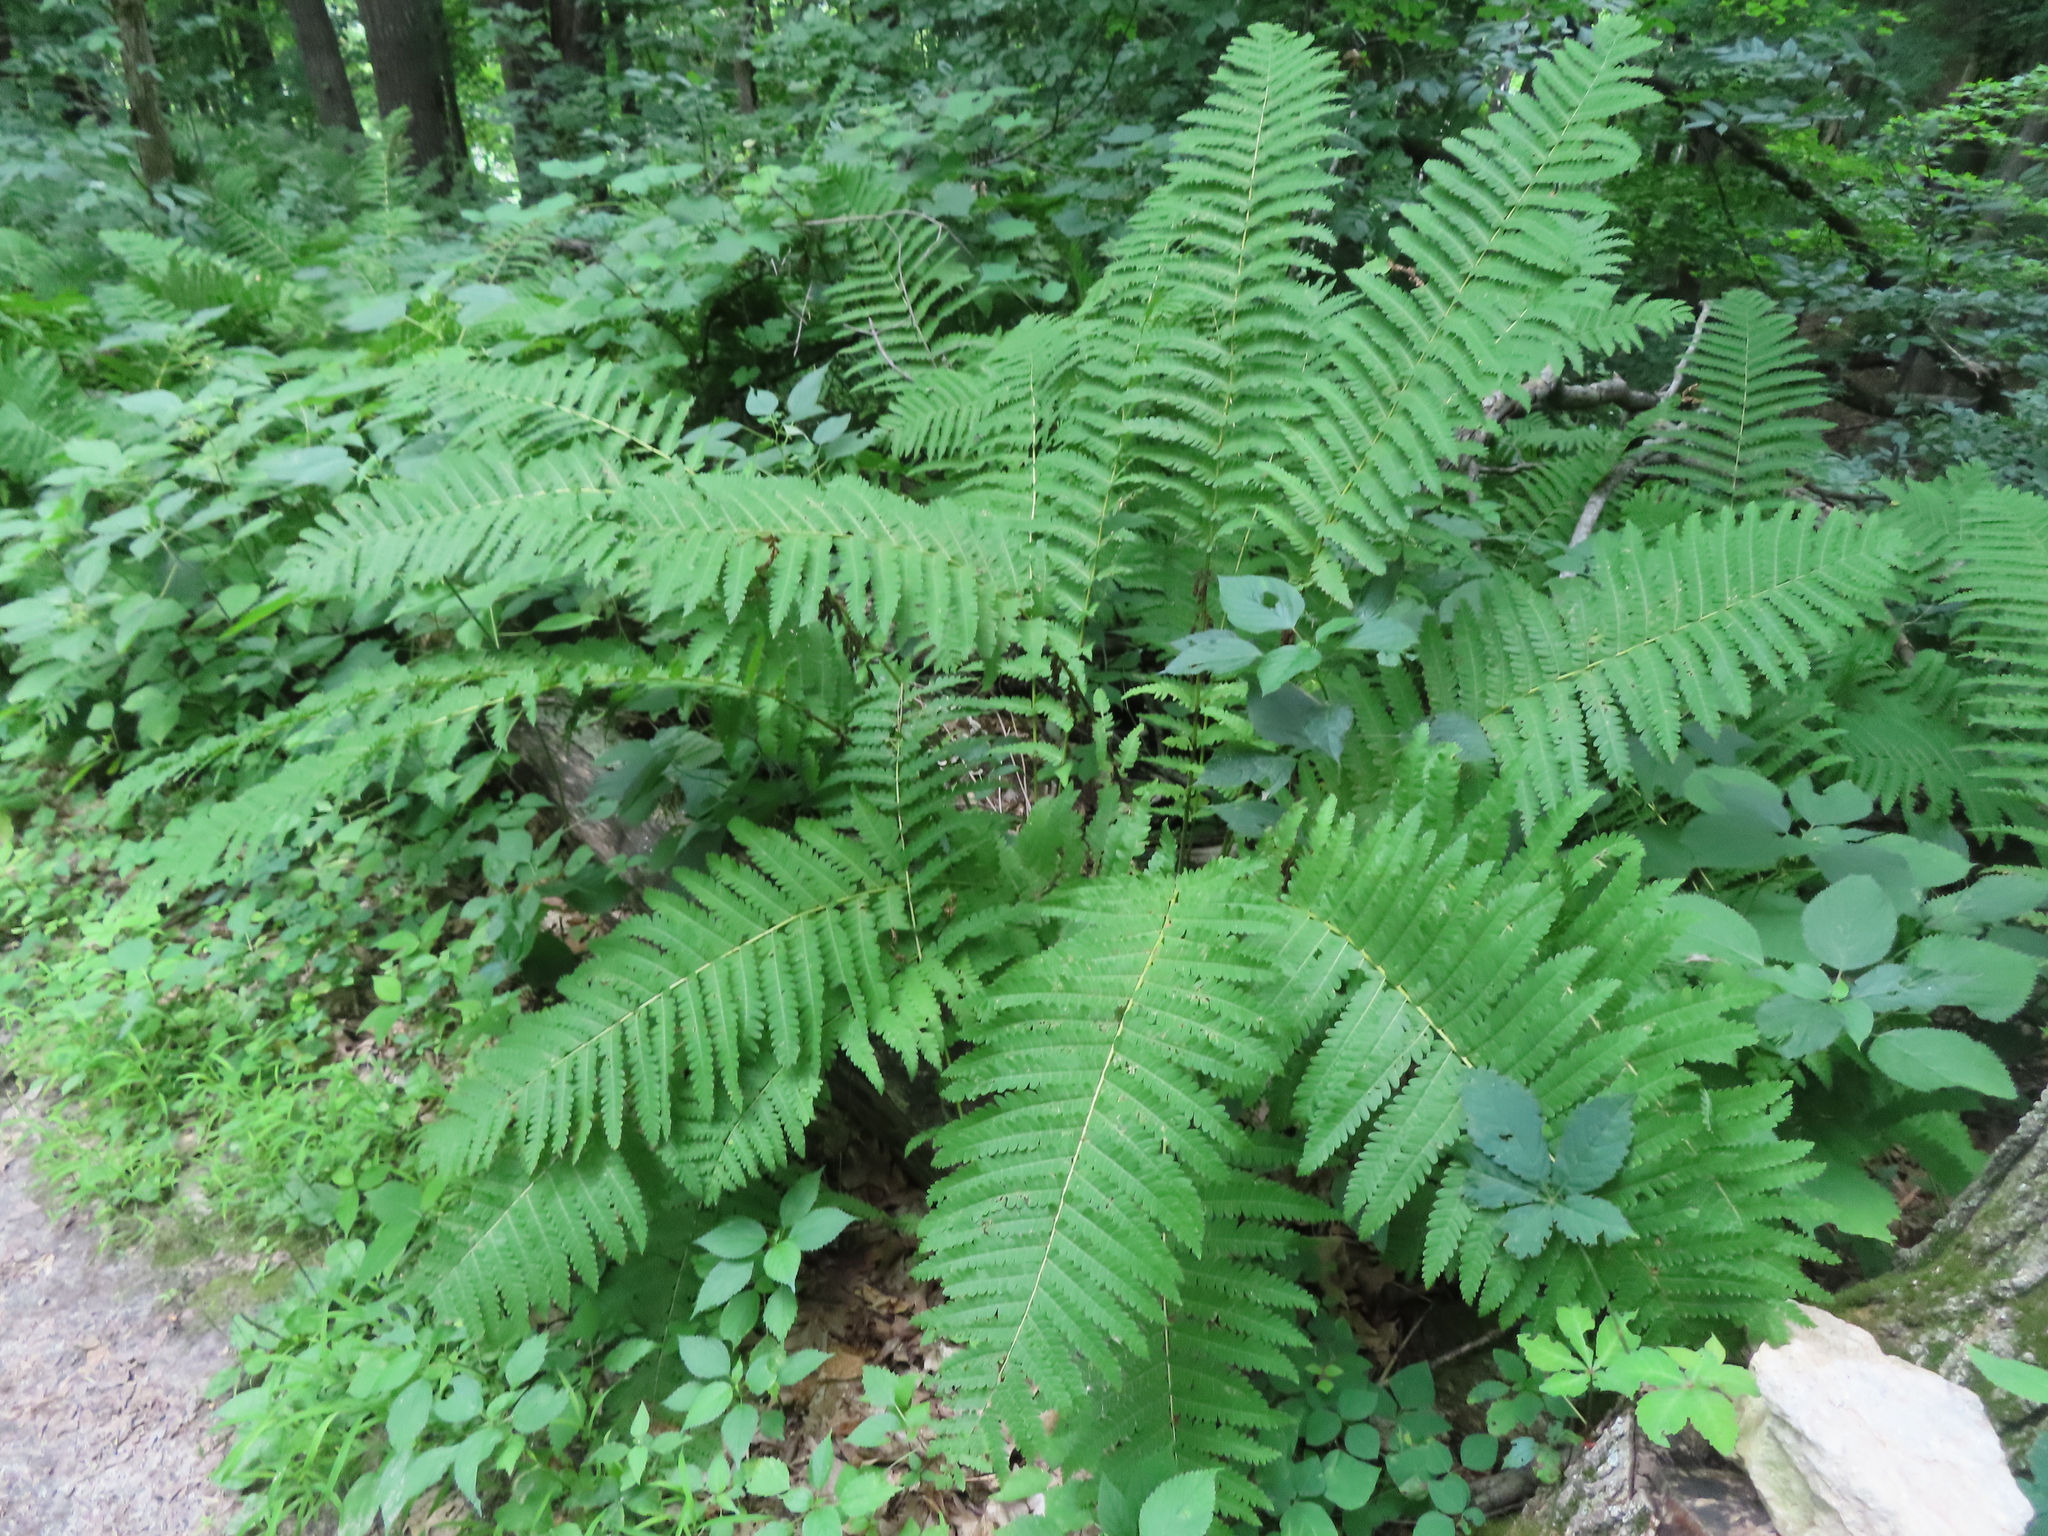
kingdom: Plantae
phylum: Tracheophyta
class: Polypodiopsida
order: Osmundales
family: Osmundaceae
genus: Claytosmunda
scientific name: Claytosmunda claytoniana
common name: Clayton's fern
